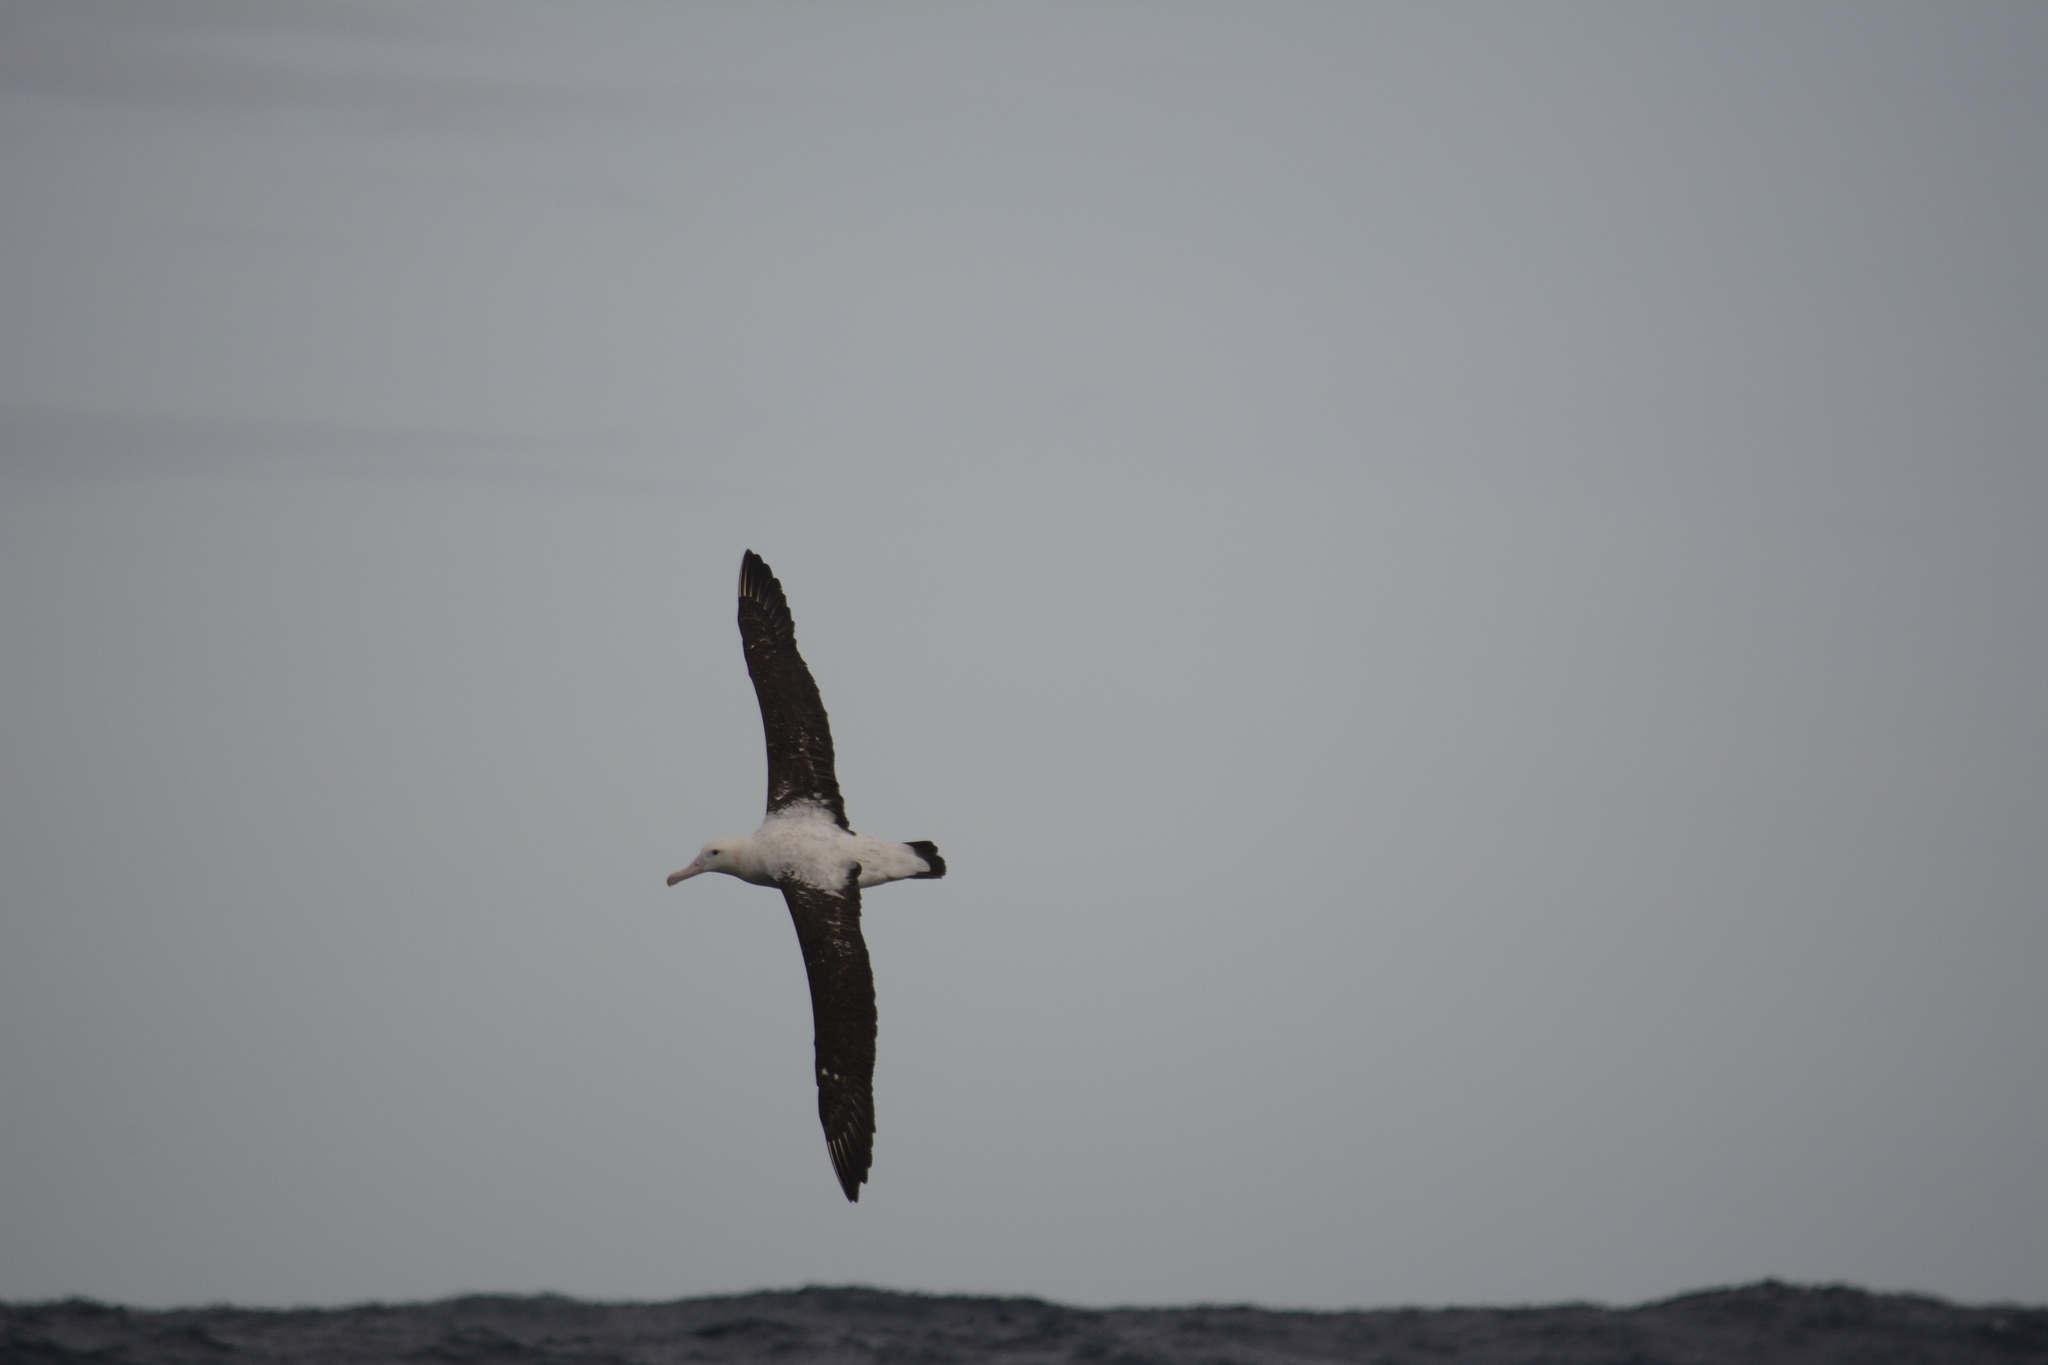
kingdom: Animalia
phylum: Chordata
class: Aves
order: Procellariiformes
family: Diomedeidae
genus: Diomedea
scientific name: Diomedea antipodensis
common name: Antipodean albatross
